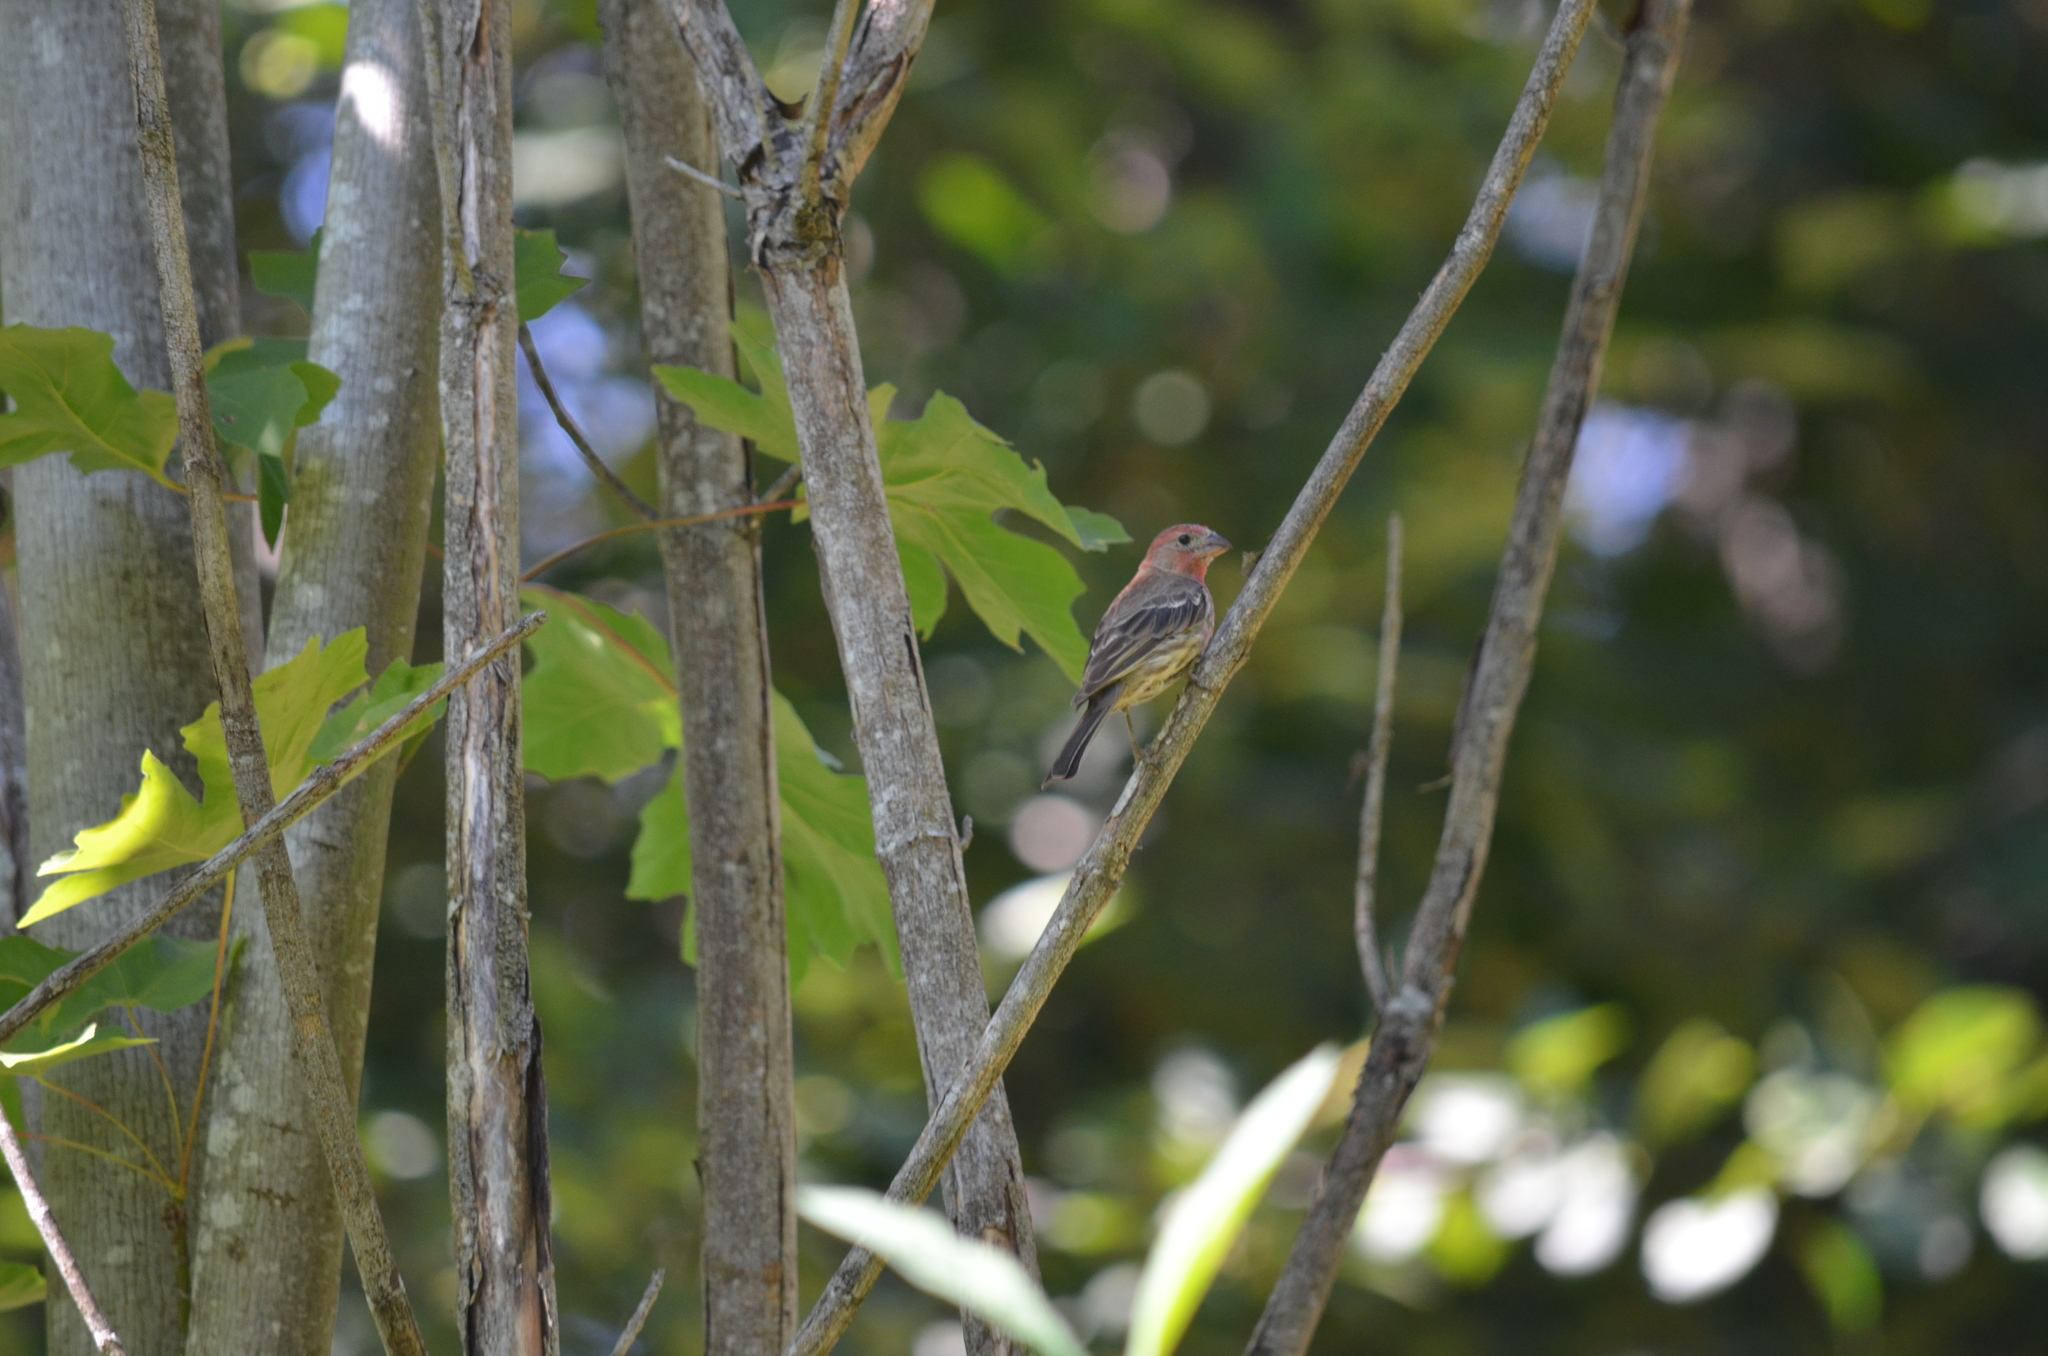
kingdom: Animalia
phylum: Chordata
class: Aves
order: Passeriformes
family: Fringillidae
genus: Haemorhous
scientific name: Haemorhous mexicanus
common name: House finch
